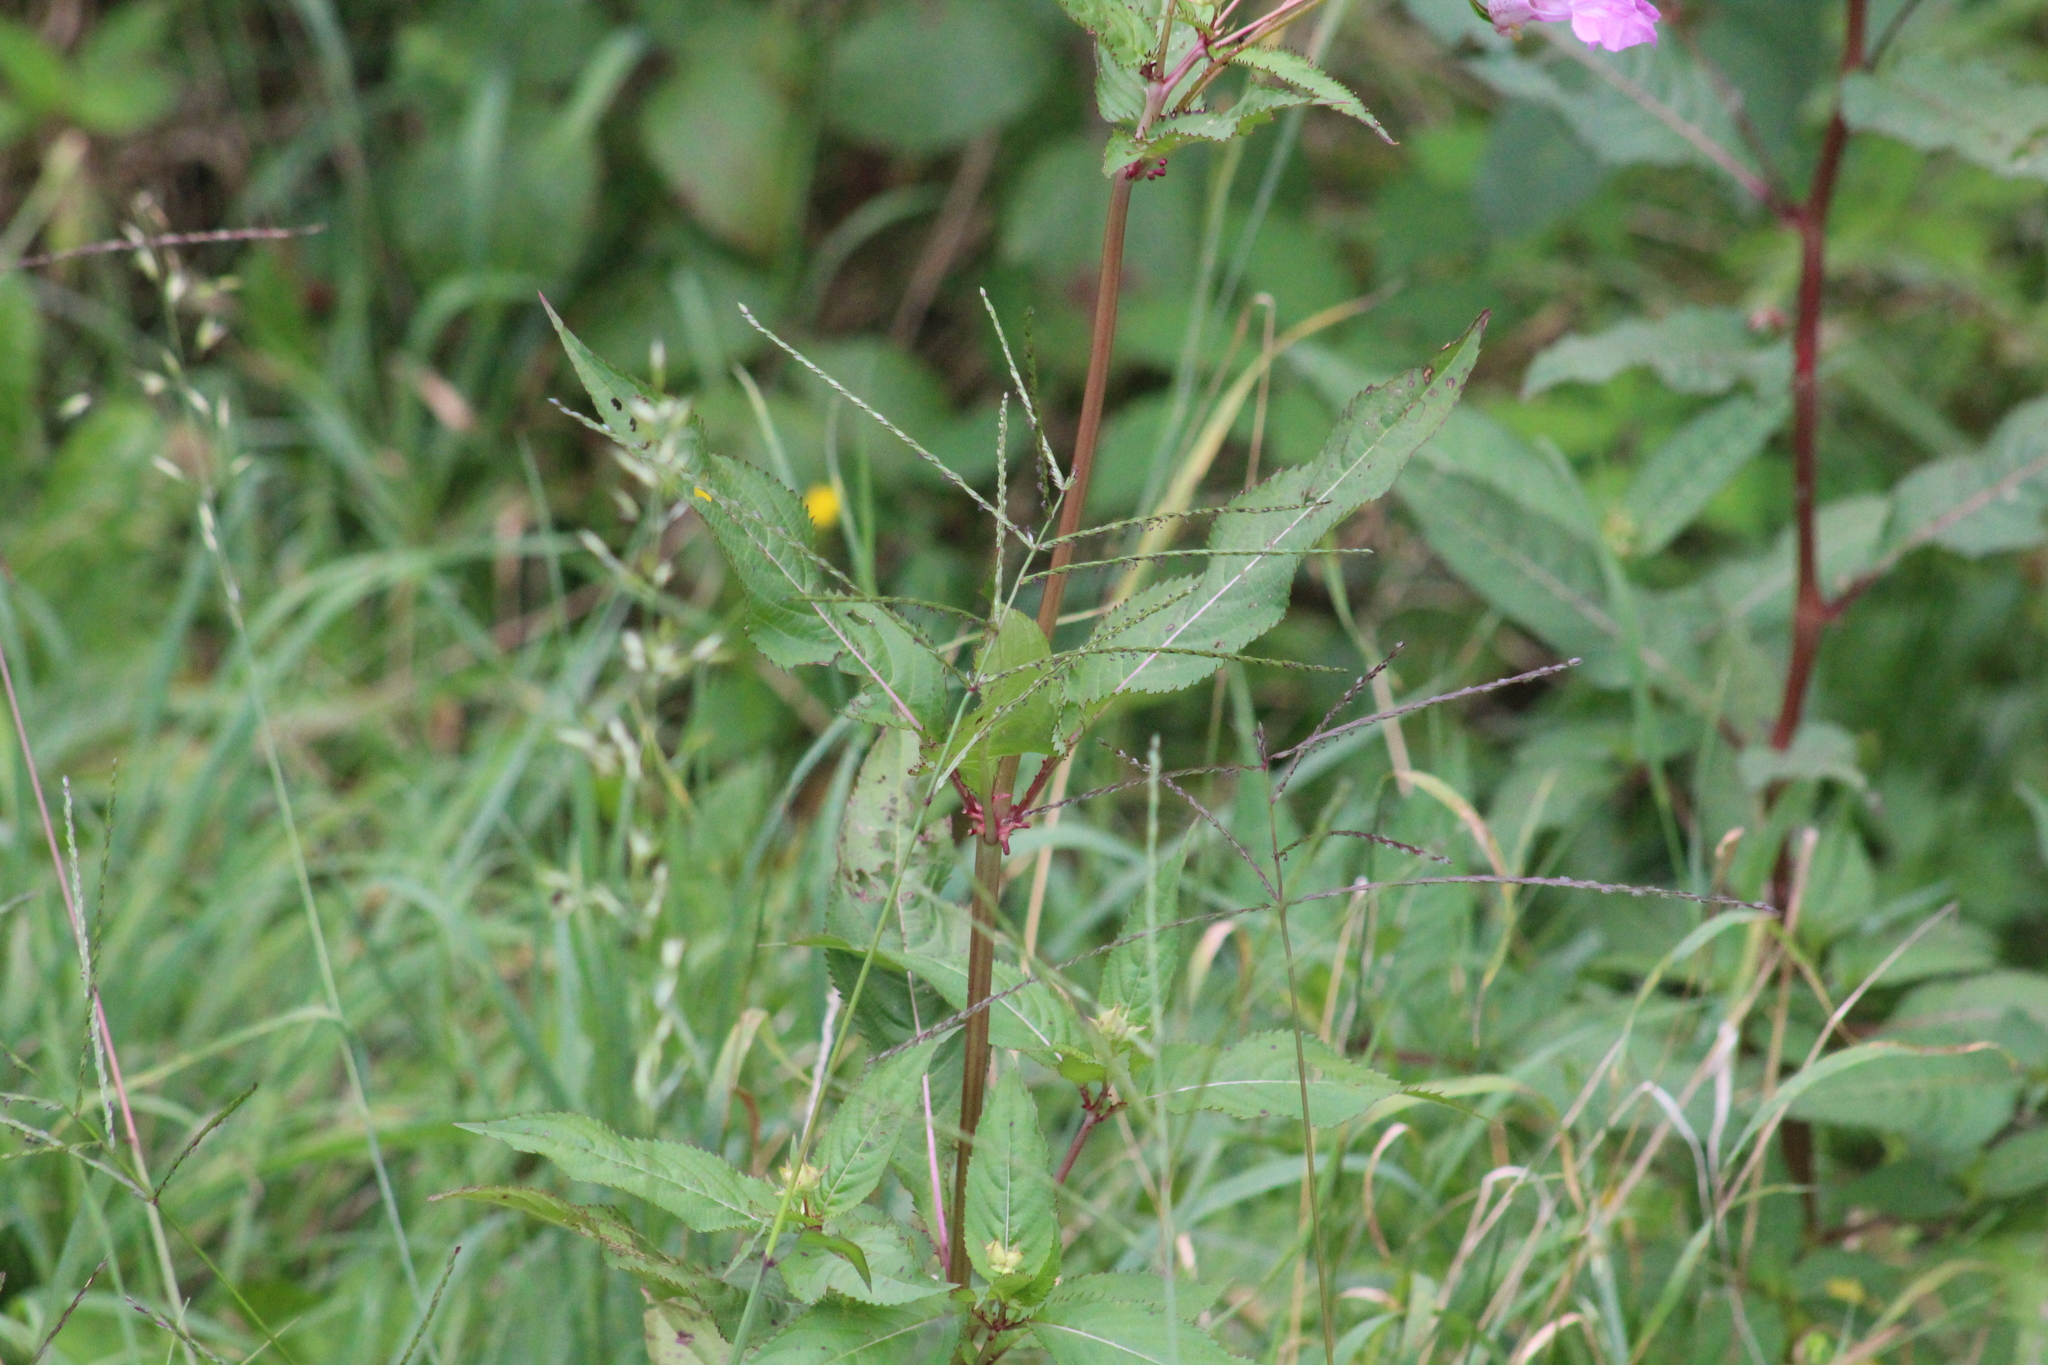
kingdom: Plantae
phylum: Tracheophyta
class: Magnoliopsida
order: Ericales
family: Balsaminaceae
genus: Impatiens
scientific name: Impatiens glandulifera
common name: Himalayan balsam
